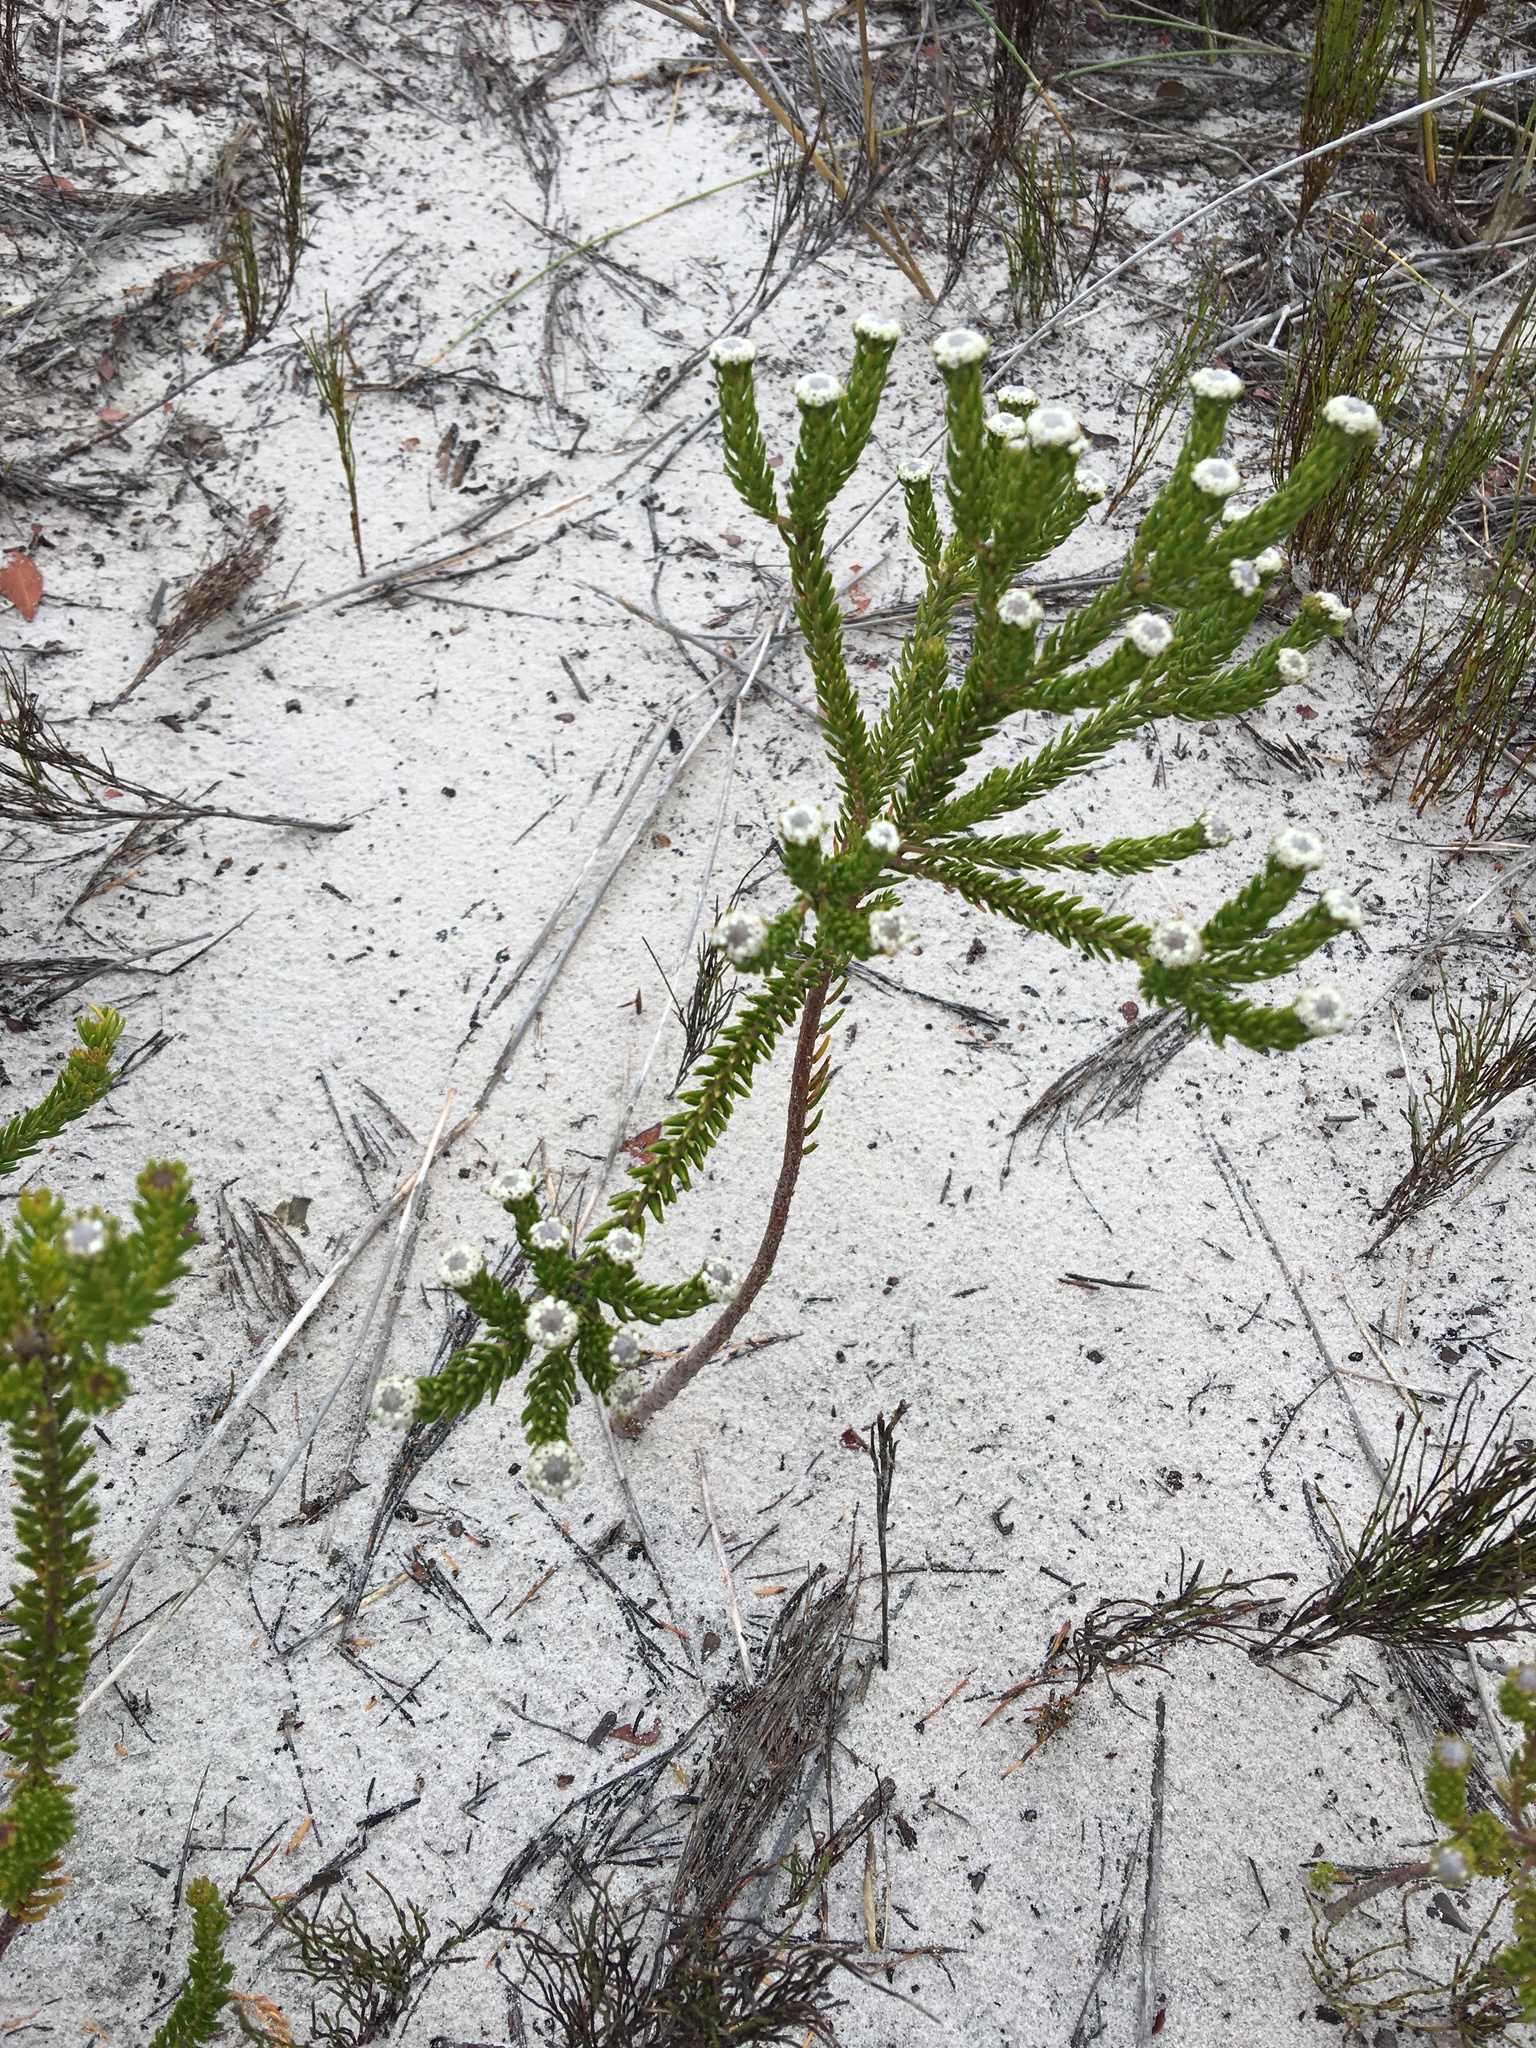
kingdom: Plantae
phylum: Tracheophyta
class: Magnoliopsida
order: Rosales
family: Rhamnaceae
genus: Phylica
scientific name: Phylica ericoides
